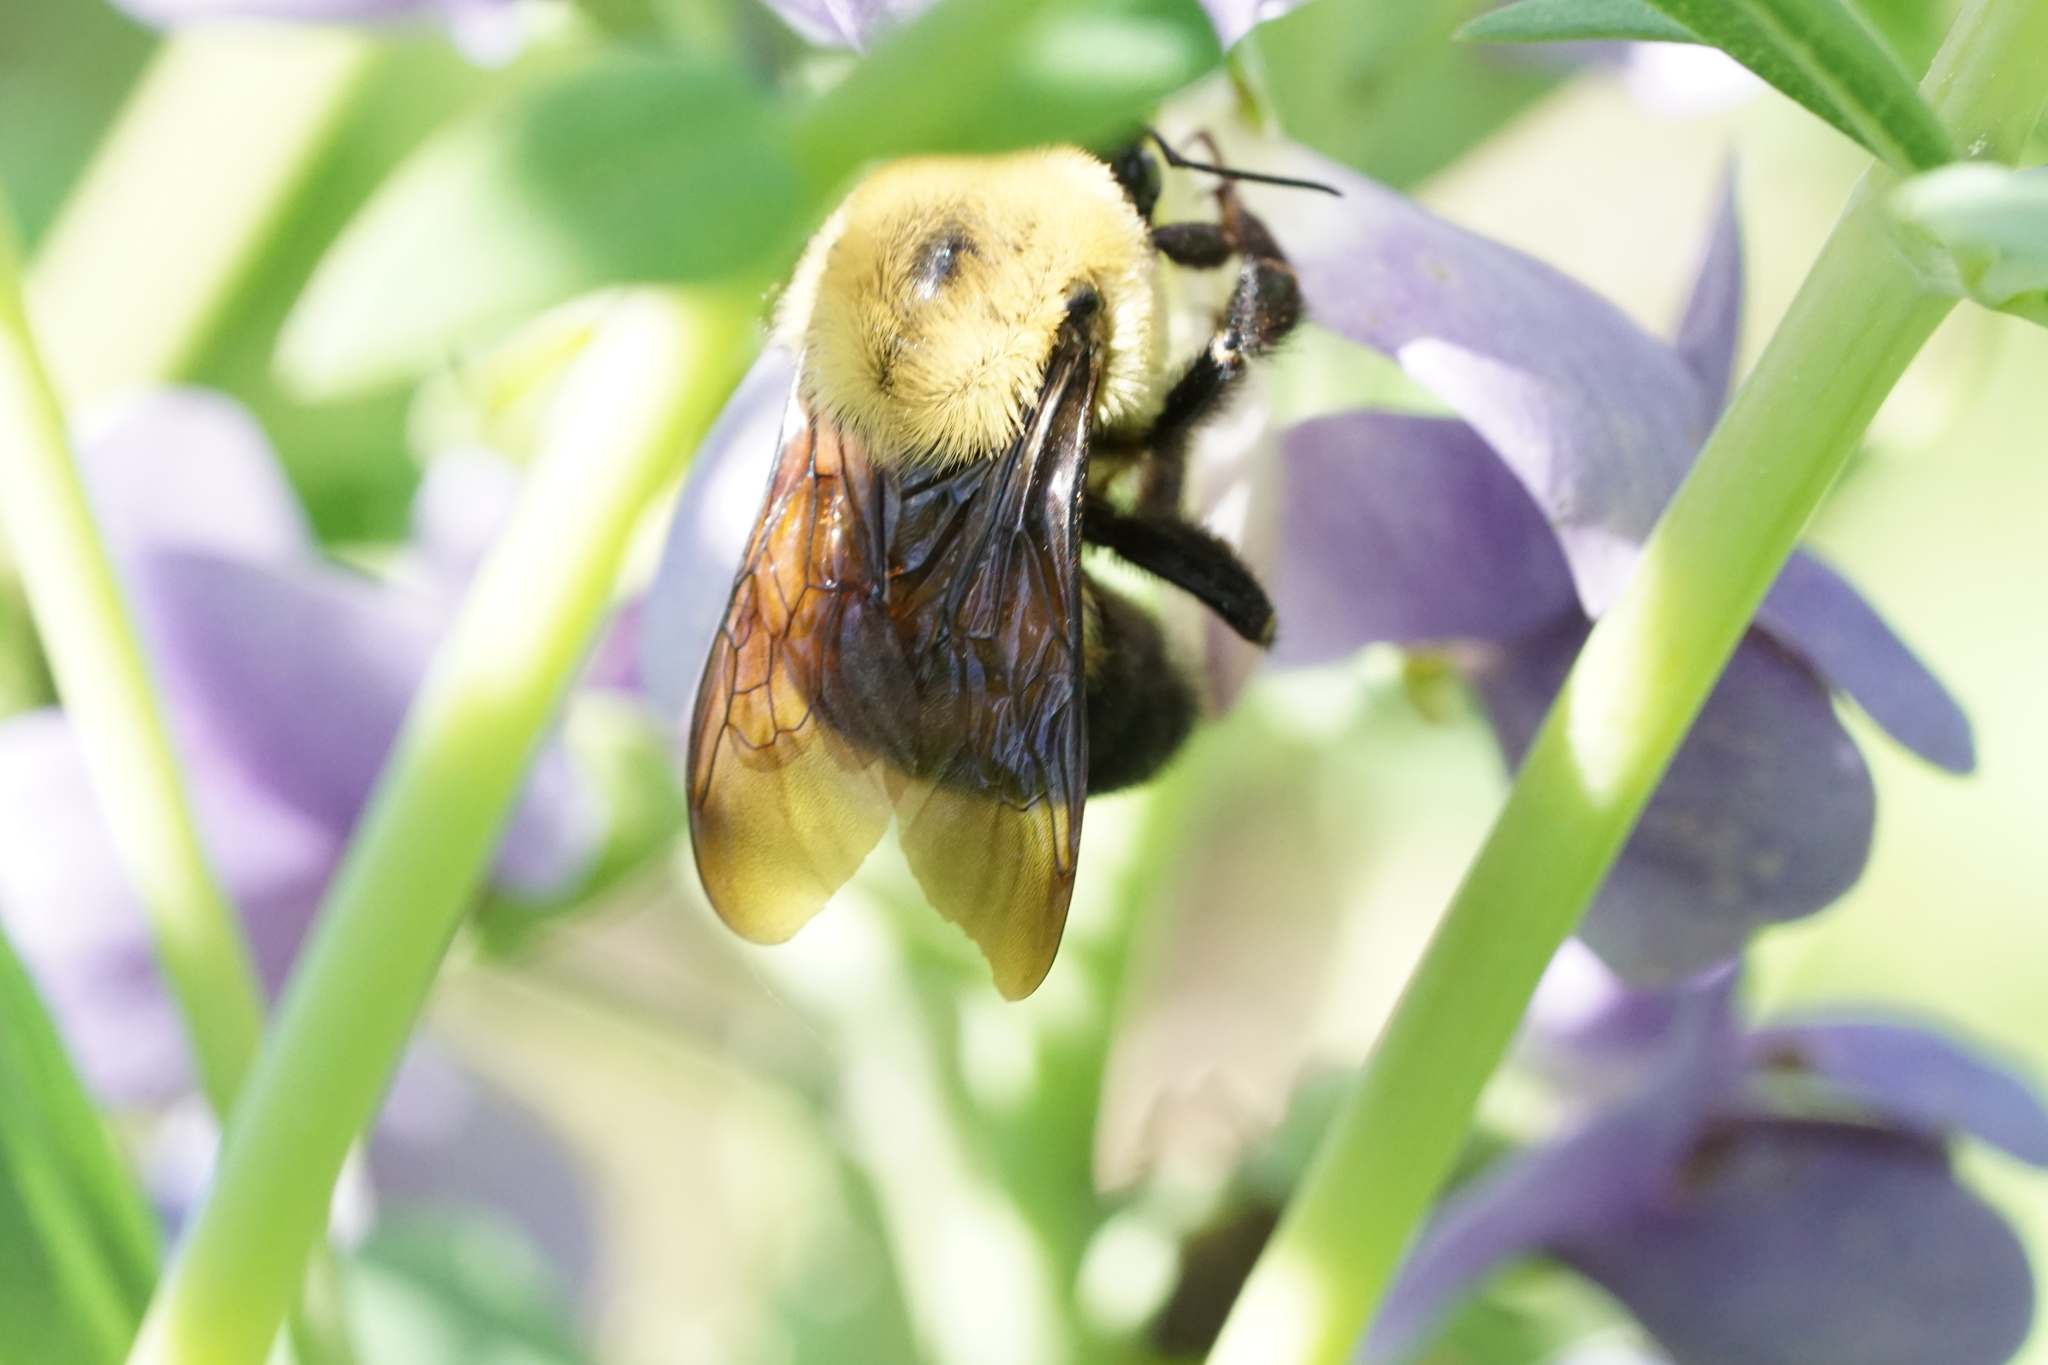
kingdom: Animalia
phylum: Arthropoda
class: Insecta
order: Hymenoptera
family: Apidae
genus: Bombus
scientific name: Bombus griseocollis
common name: Brown-belted bumble bee
